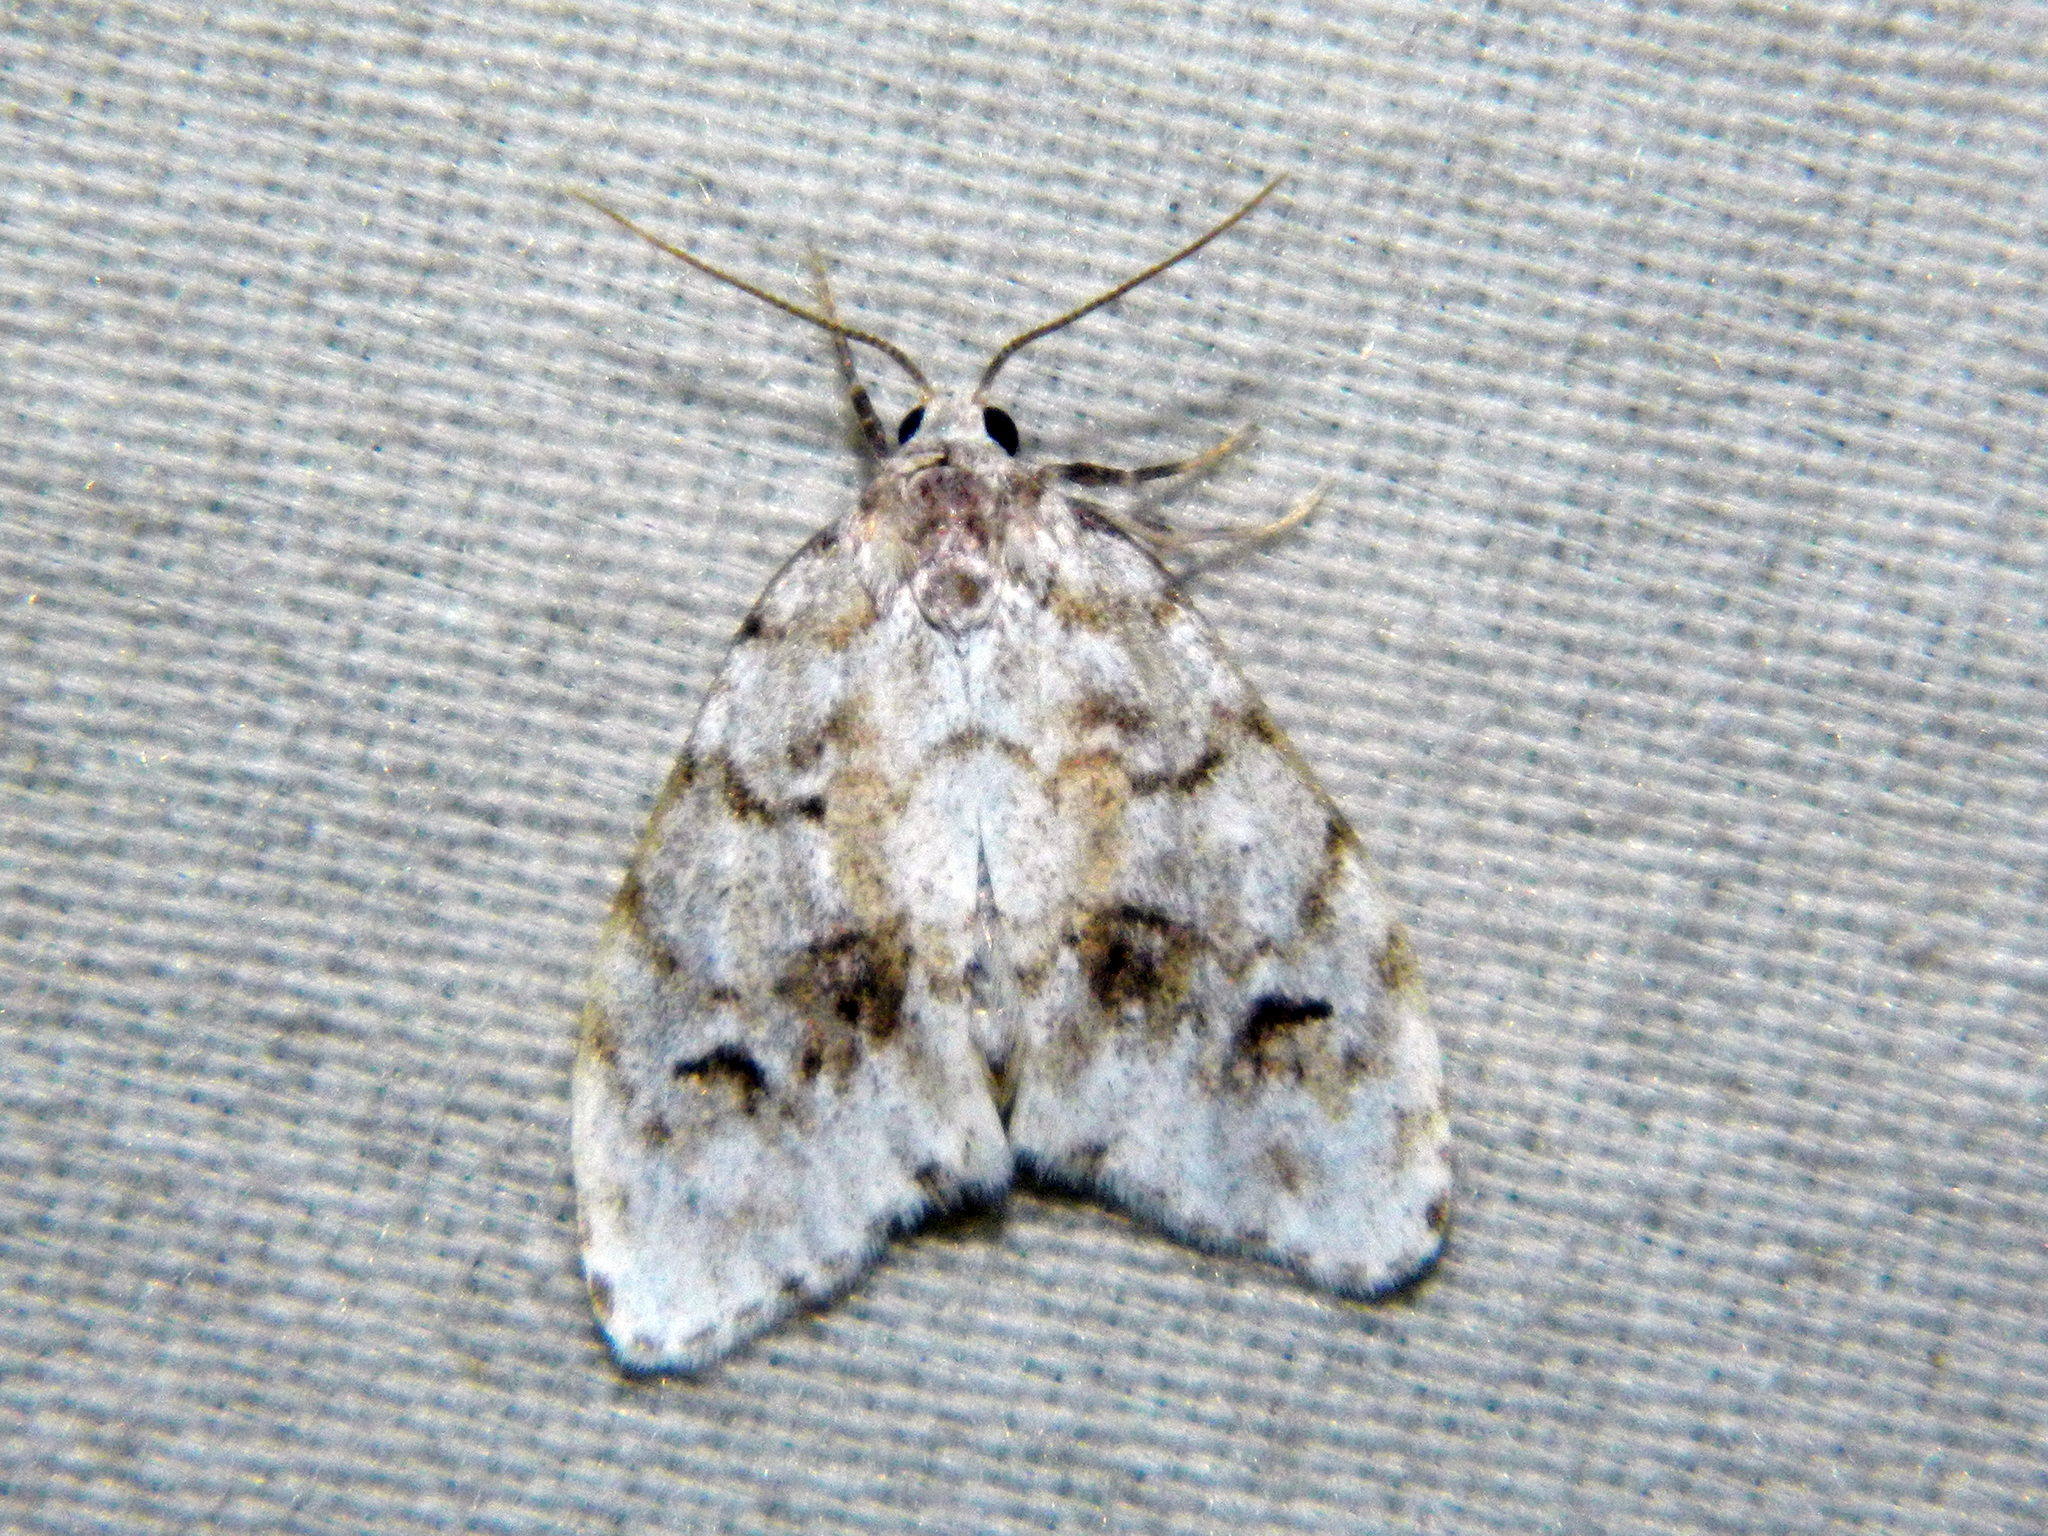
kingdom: Animalia
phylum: Arthropoda
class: Insecta
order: Lepidoptera
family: Erebidae
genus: Clemensia
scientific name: Clemensia umbrata
